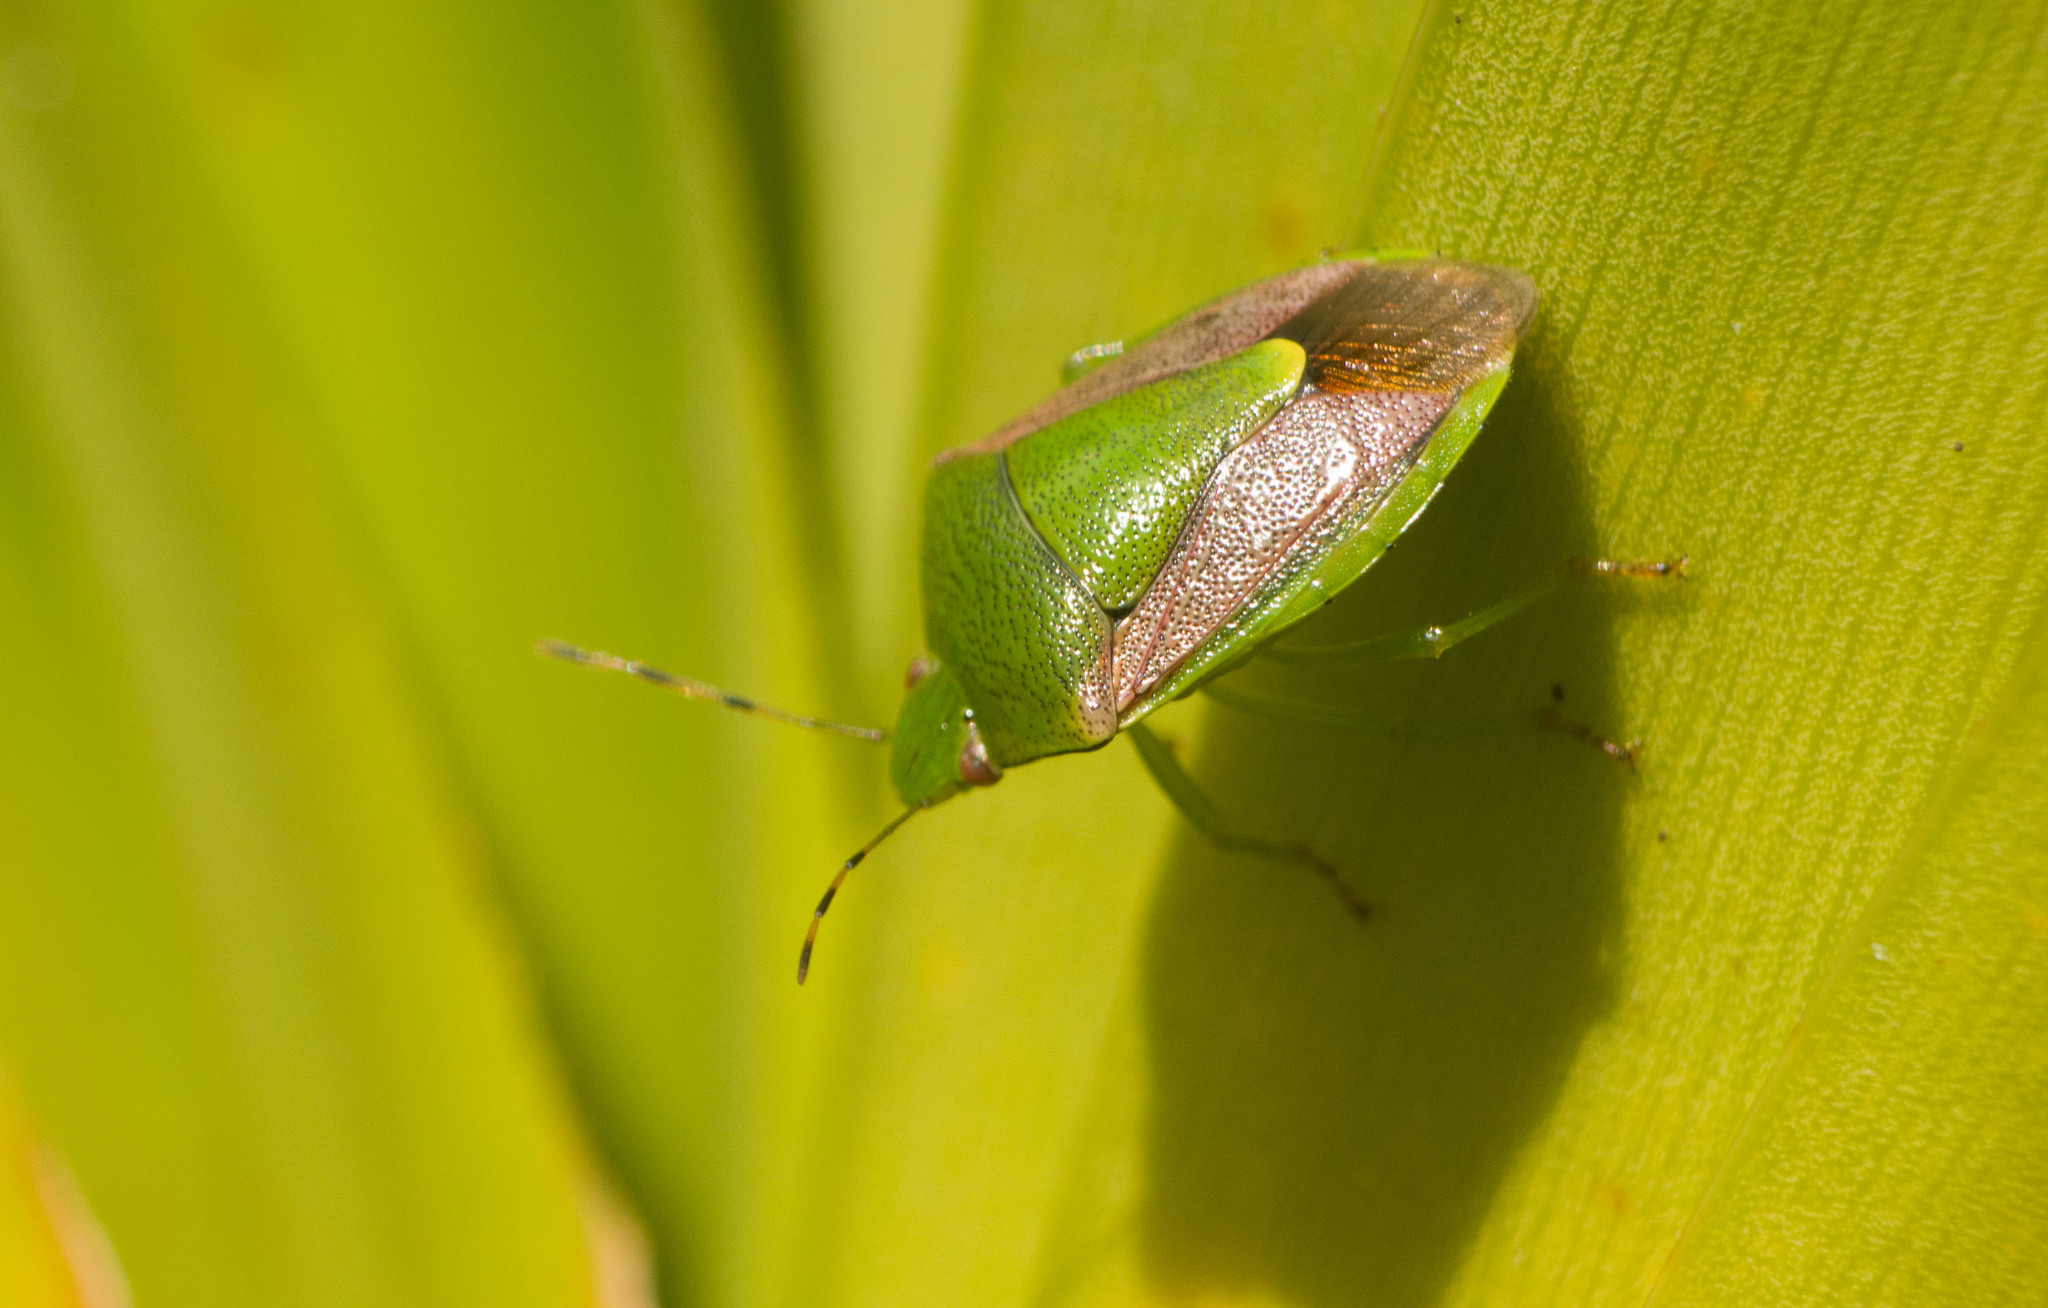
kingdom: Animalia
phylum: Arthropoda
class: Insecta
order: Hemiptera
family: Pentatomidae
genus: Plautia
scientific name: Plautia stali
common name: Stink bug
